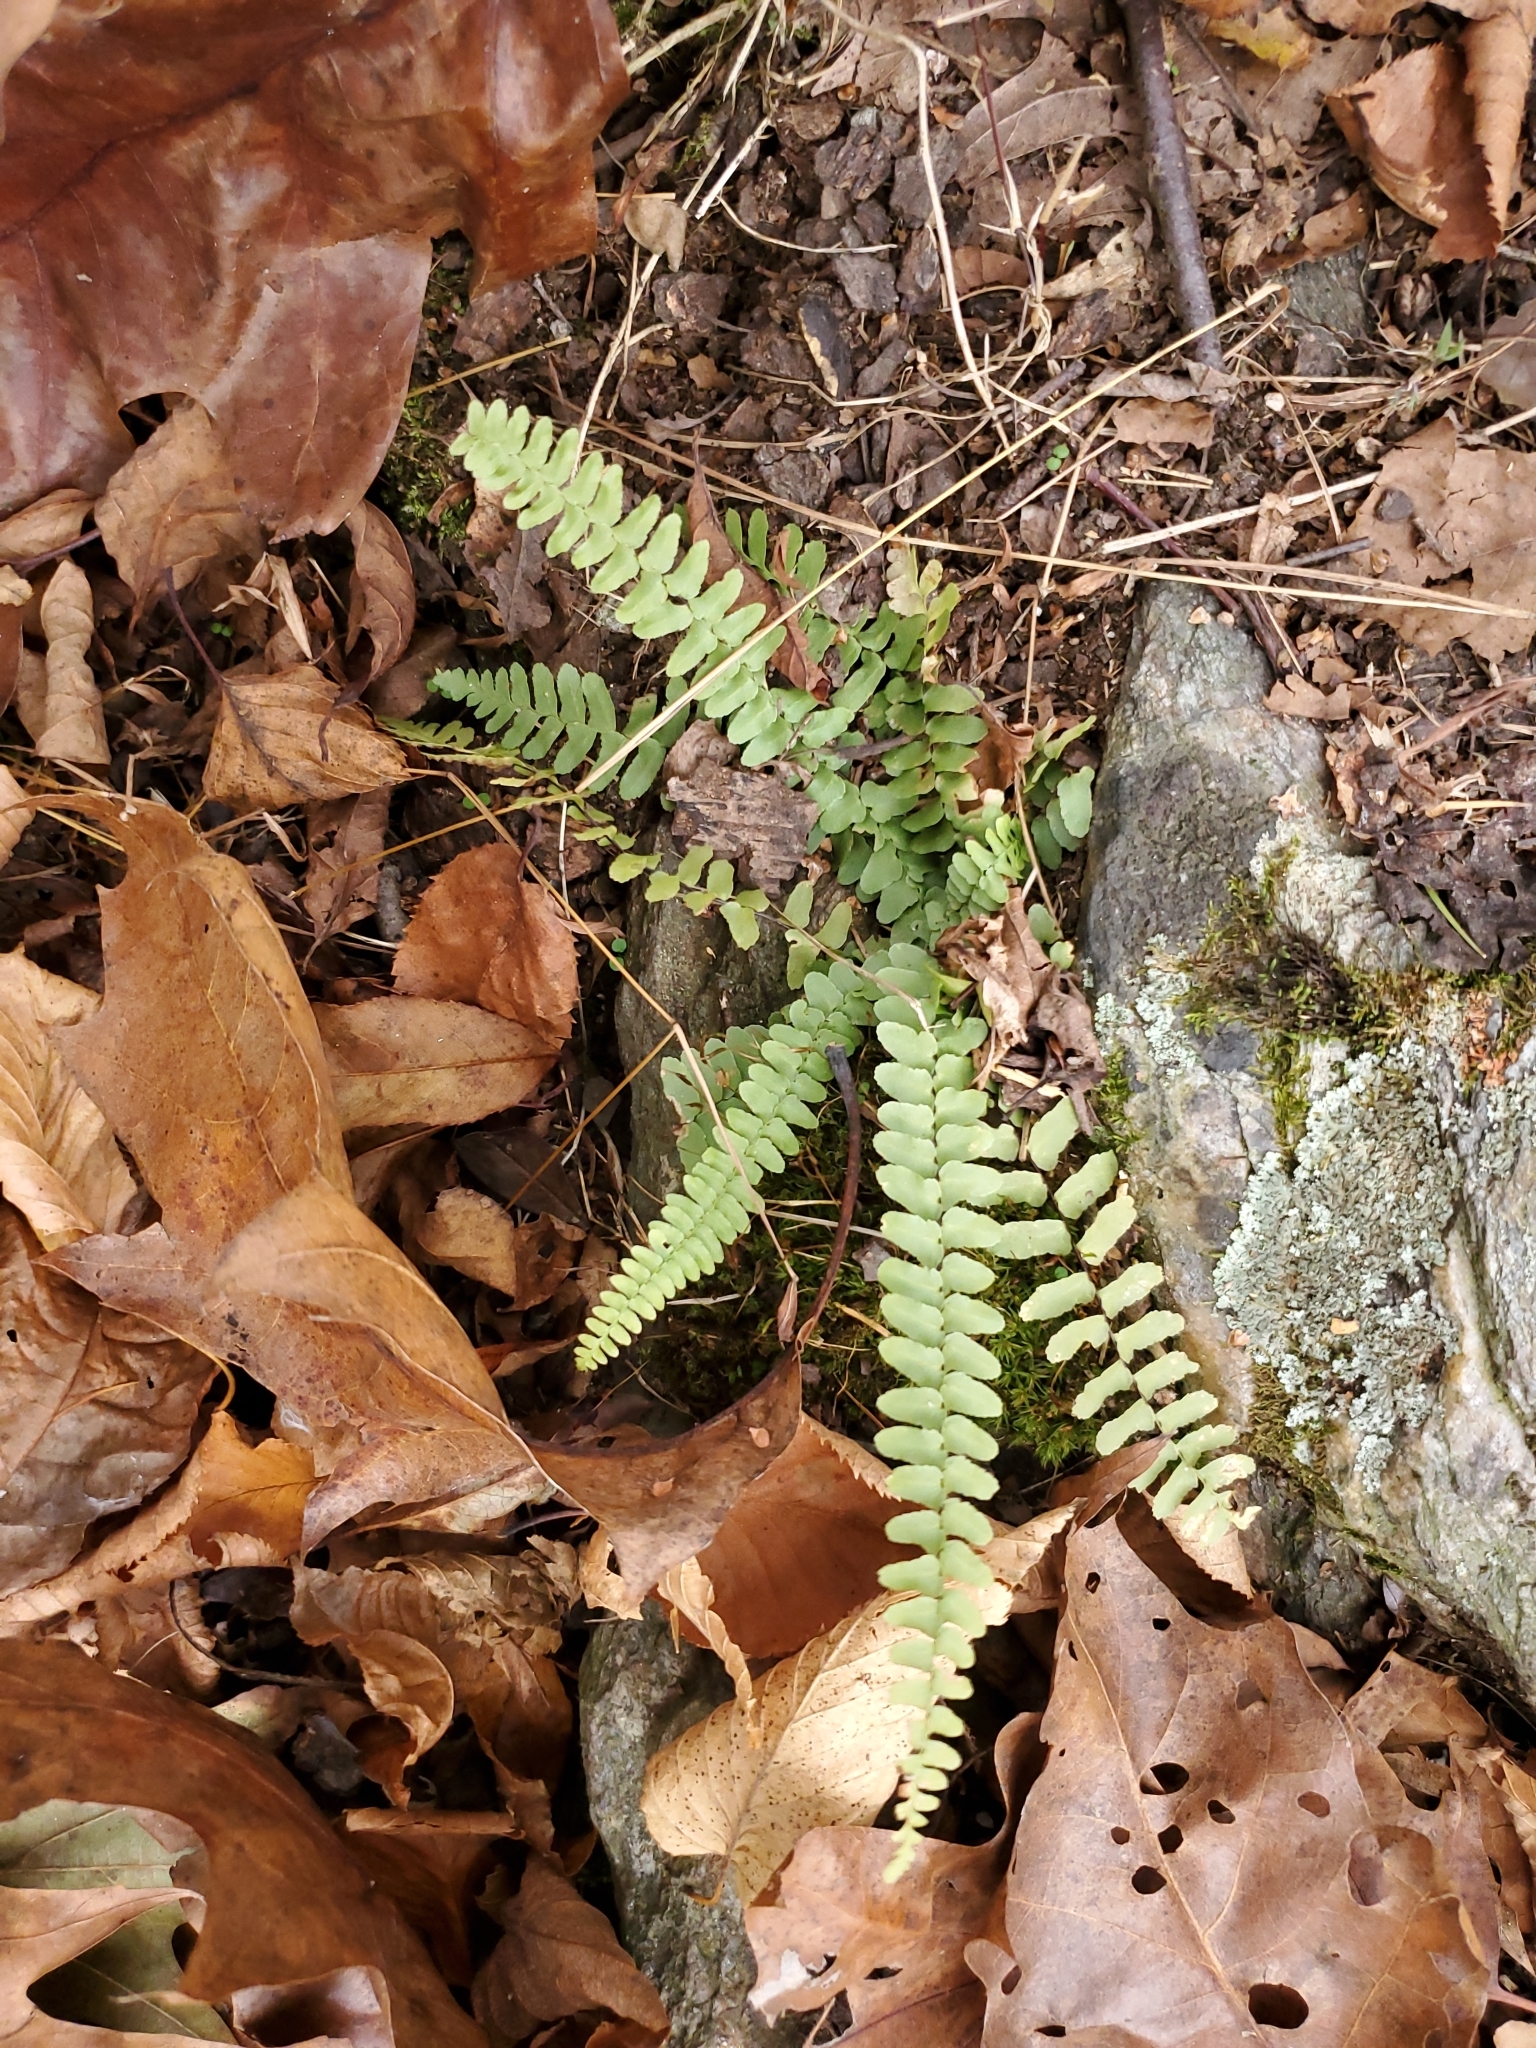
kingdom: Plantae
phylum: Tracheophyta
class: Polypodiopsida
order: Polypodiales
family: Aspleniaceae
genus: Asplenium
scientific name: Asplenium platyneuron
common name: Ebony spleenwort
